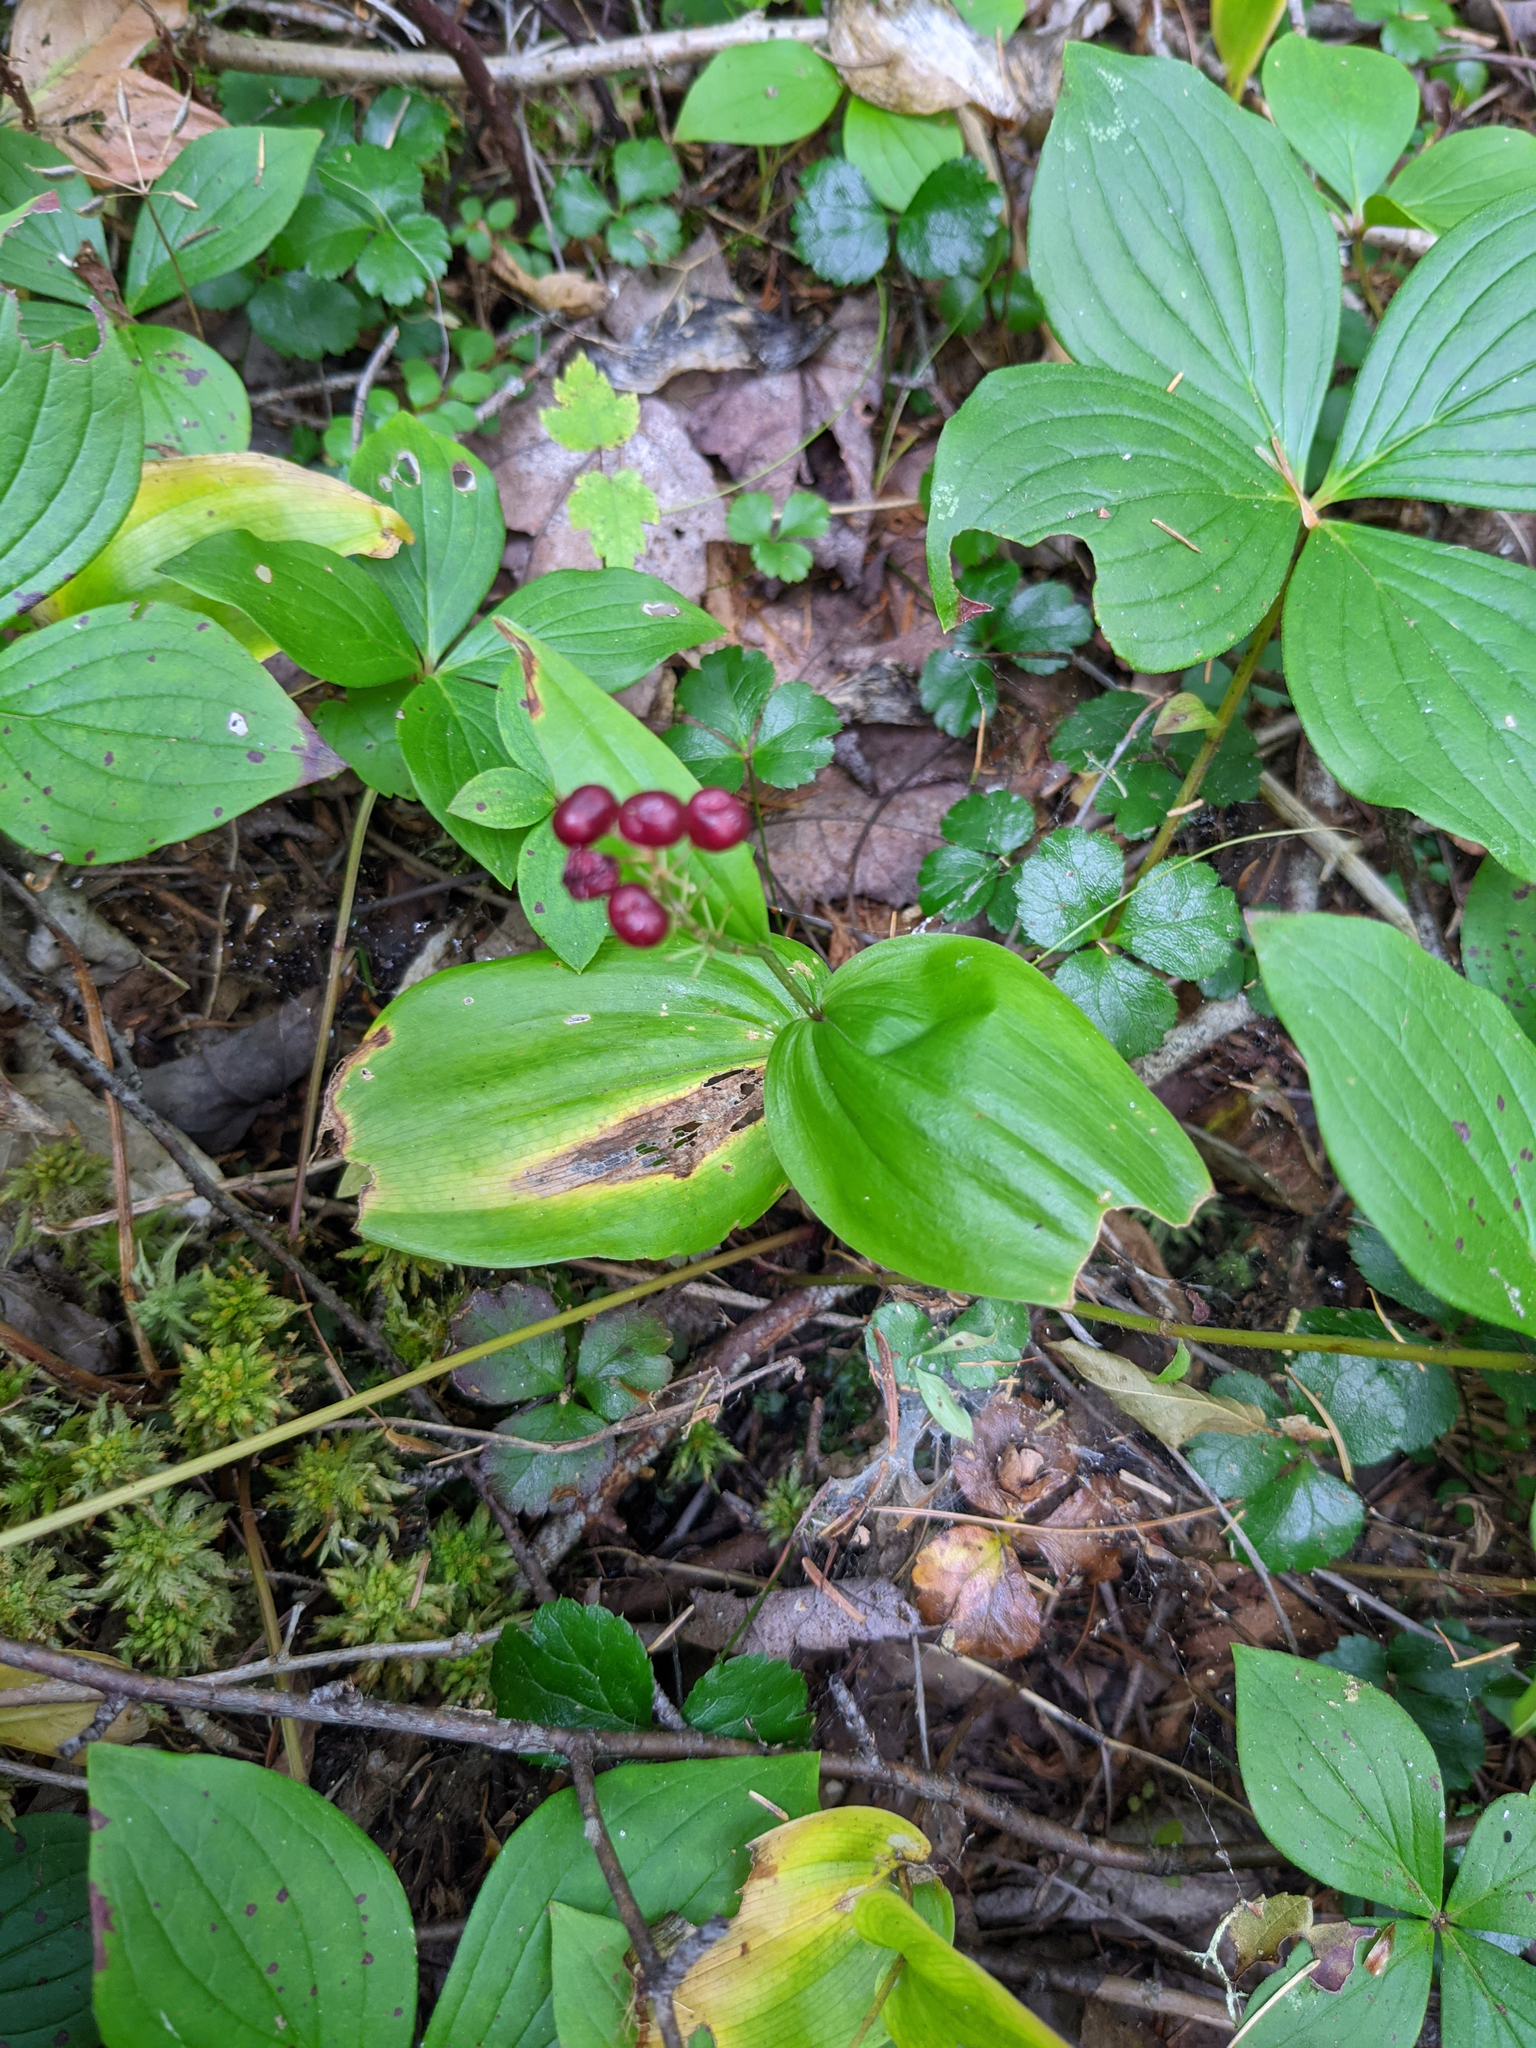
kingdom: Plantae
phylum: Tracheophyta
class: Liliopsida
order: Asparagales
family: Asparagaceae
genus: Maianthemum
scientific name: Maianthemum canadense
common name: False lily-of-the-valley
